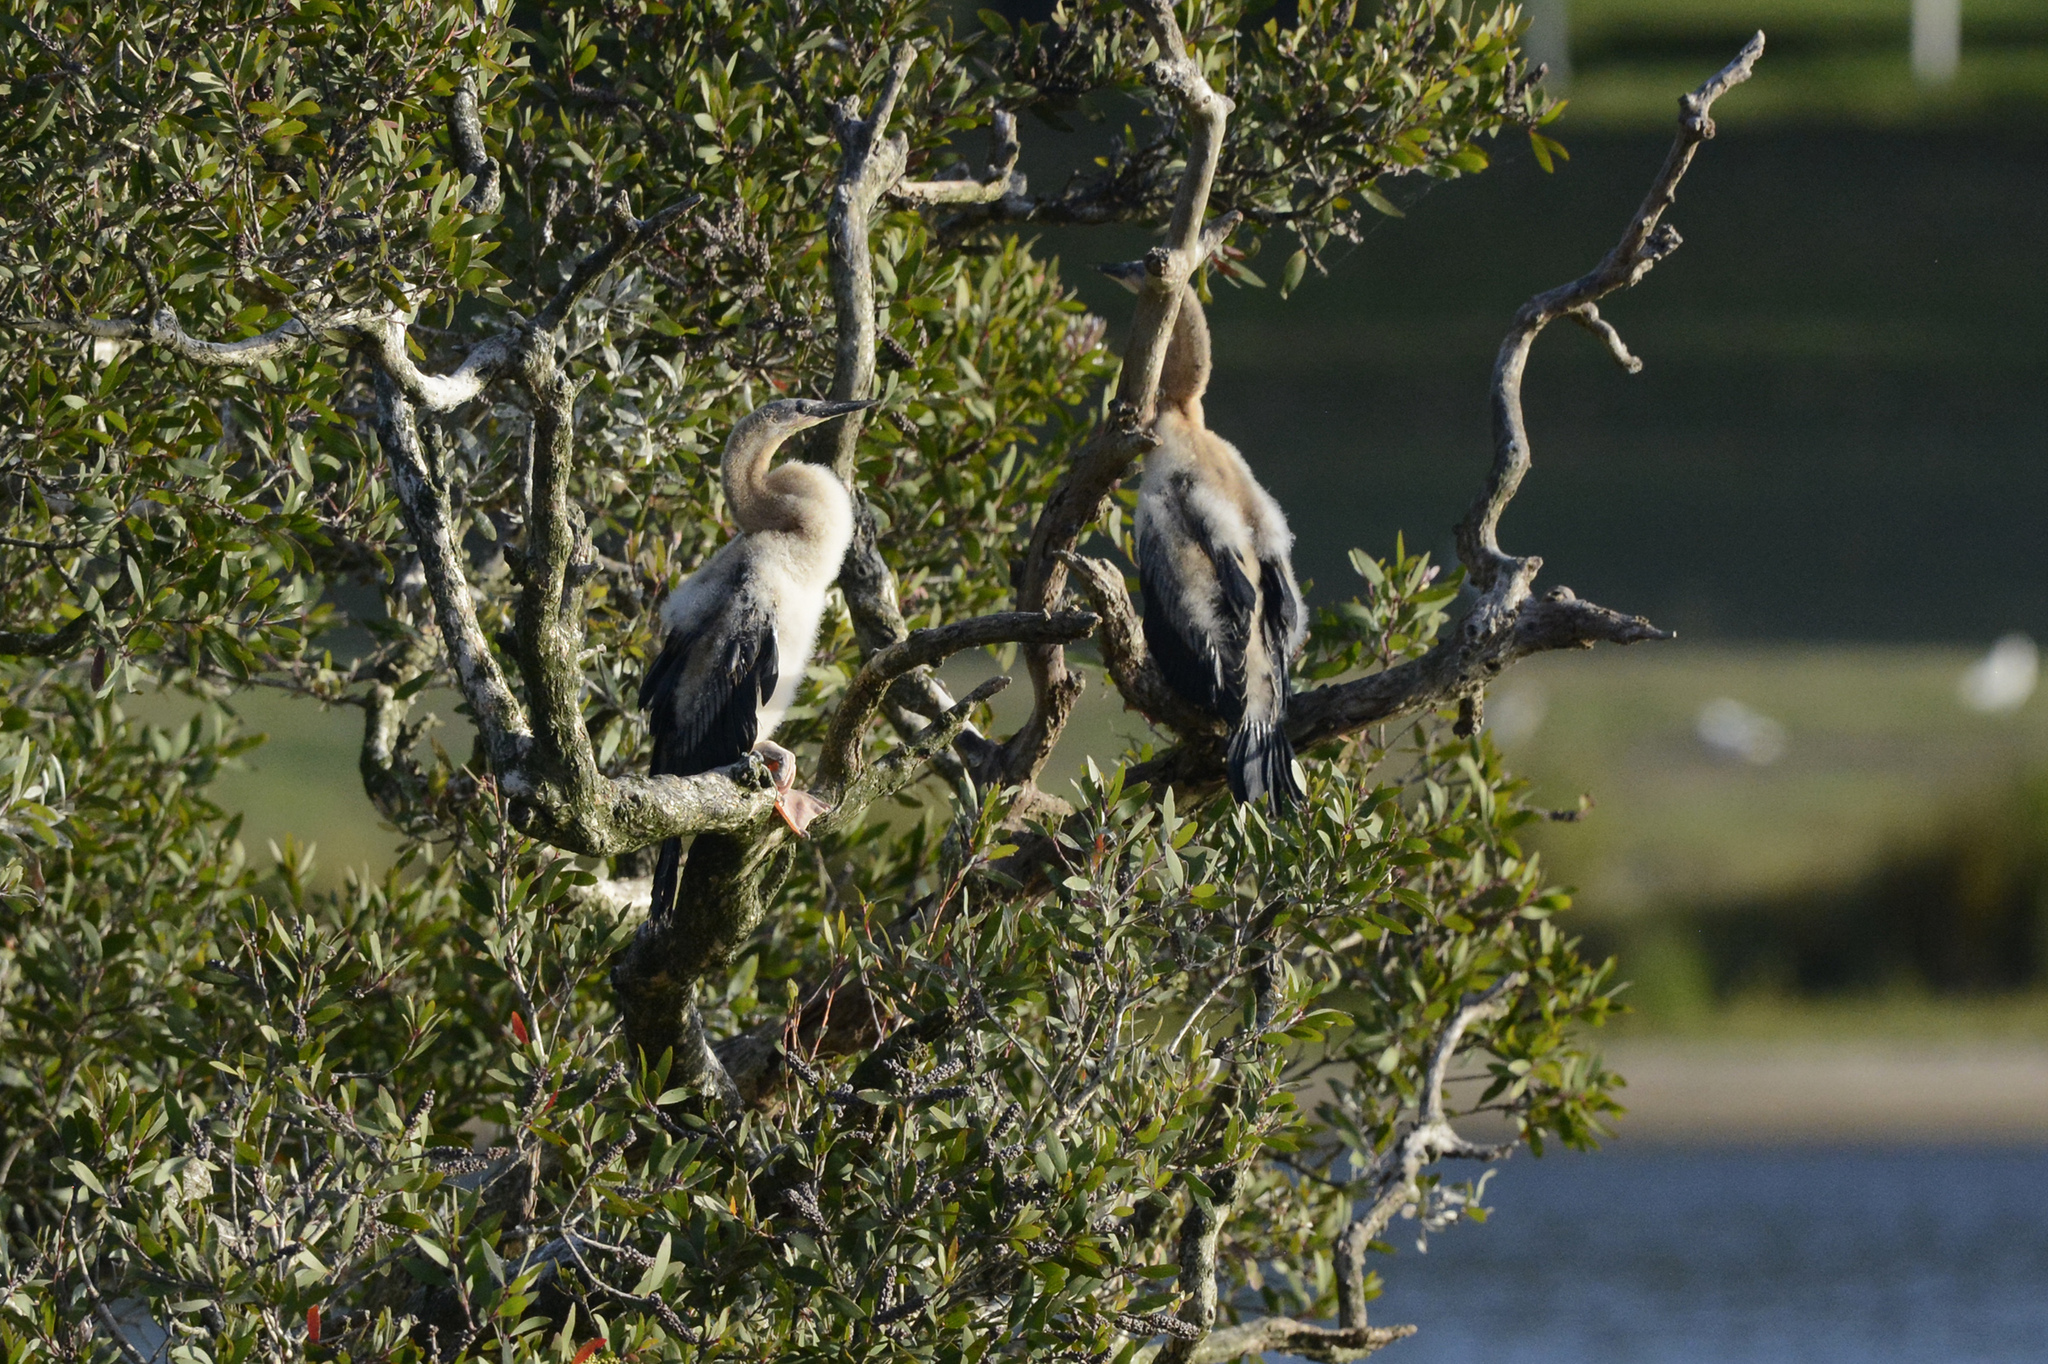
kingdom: Animalia
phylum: Chordata
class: Aves
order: Suliformes
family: Anhingidae
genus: Anhinga
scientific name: Anhinga novaehollandiae
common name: Australasian darter
